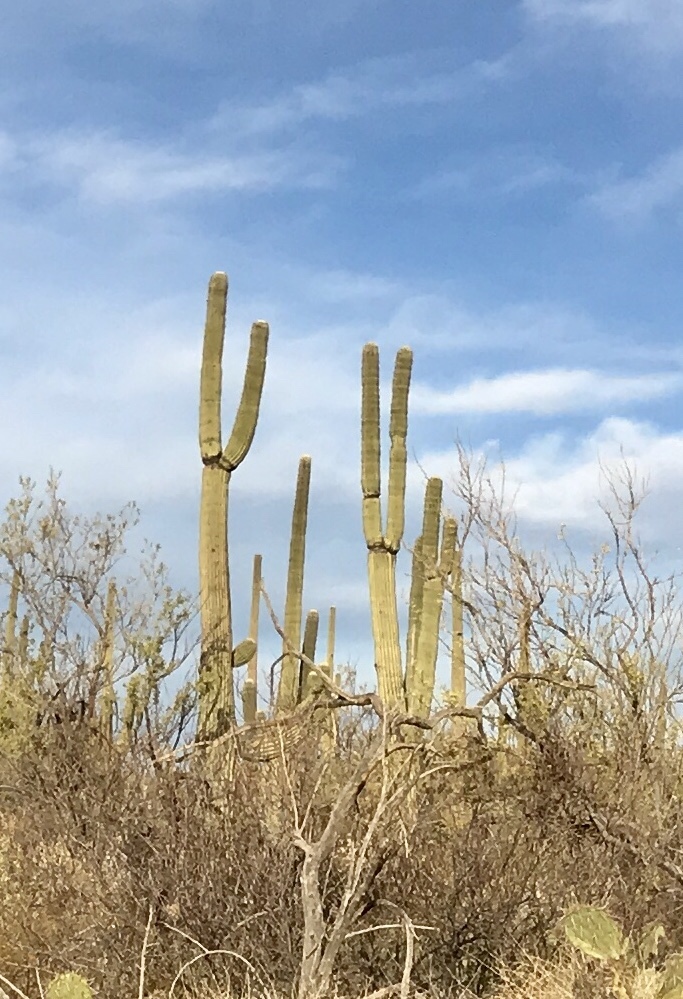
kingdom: Plantae
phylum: Tracheophyta
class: Magnoliopsida
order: Caryophyllales
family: Cactaceae
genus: Carnegiea
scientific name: Carnegiea gigantea
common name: Saguaro
